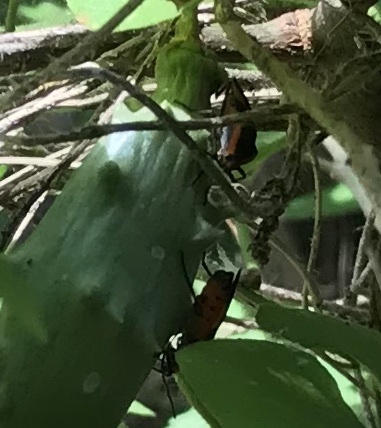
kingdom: Animalia
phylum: Arthropoda
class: Insecta
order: Hemiptera
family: Lygaeidae
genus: Oncopeltus
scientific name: Oncopeltus fasciatus
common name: Large milkweed bug
